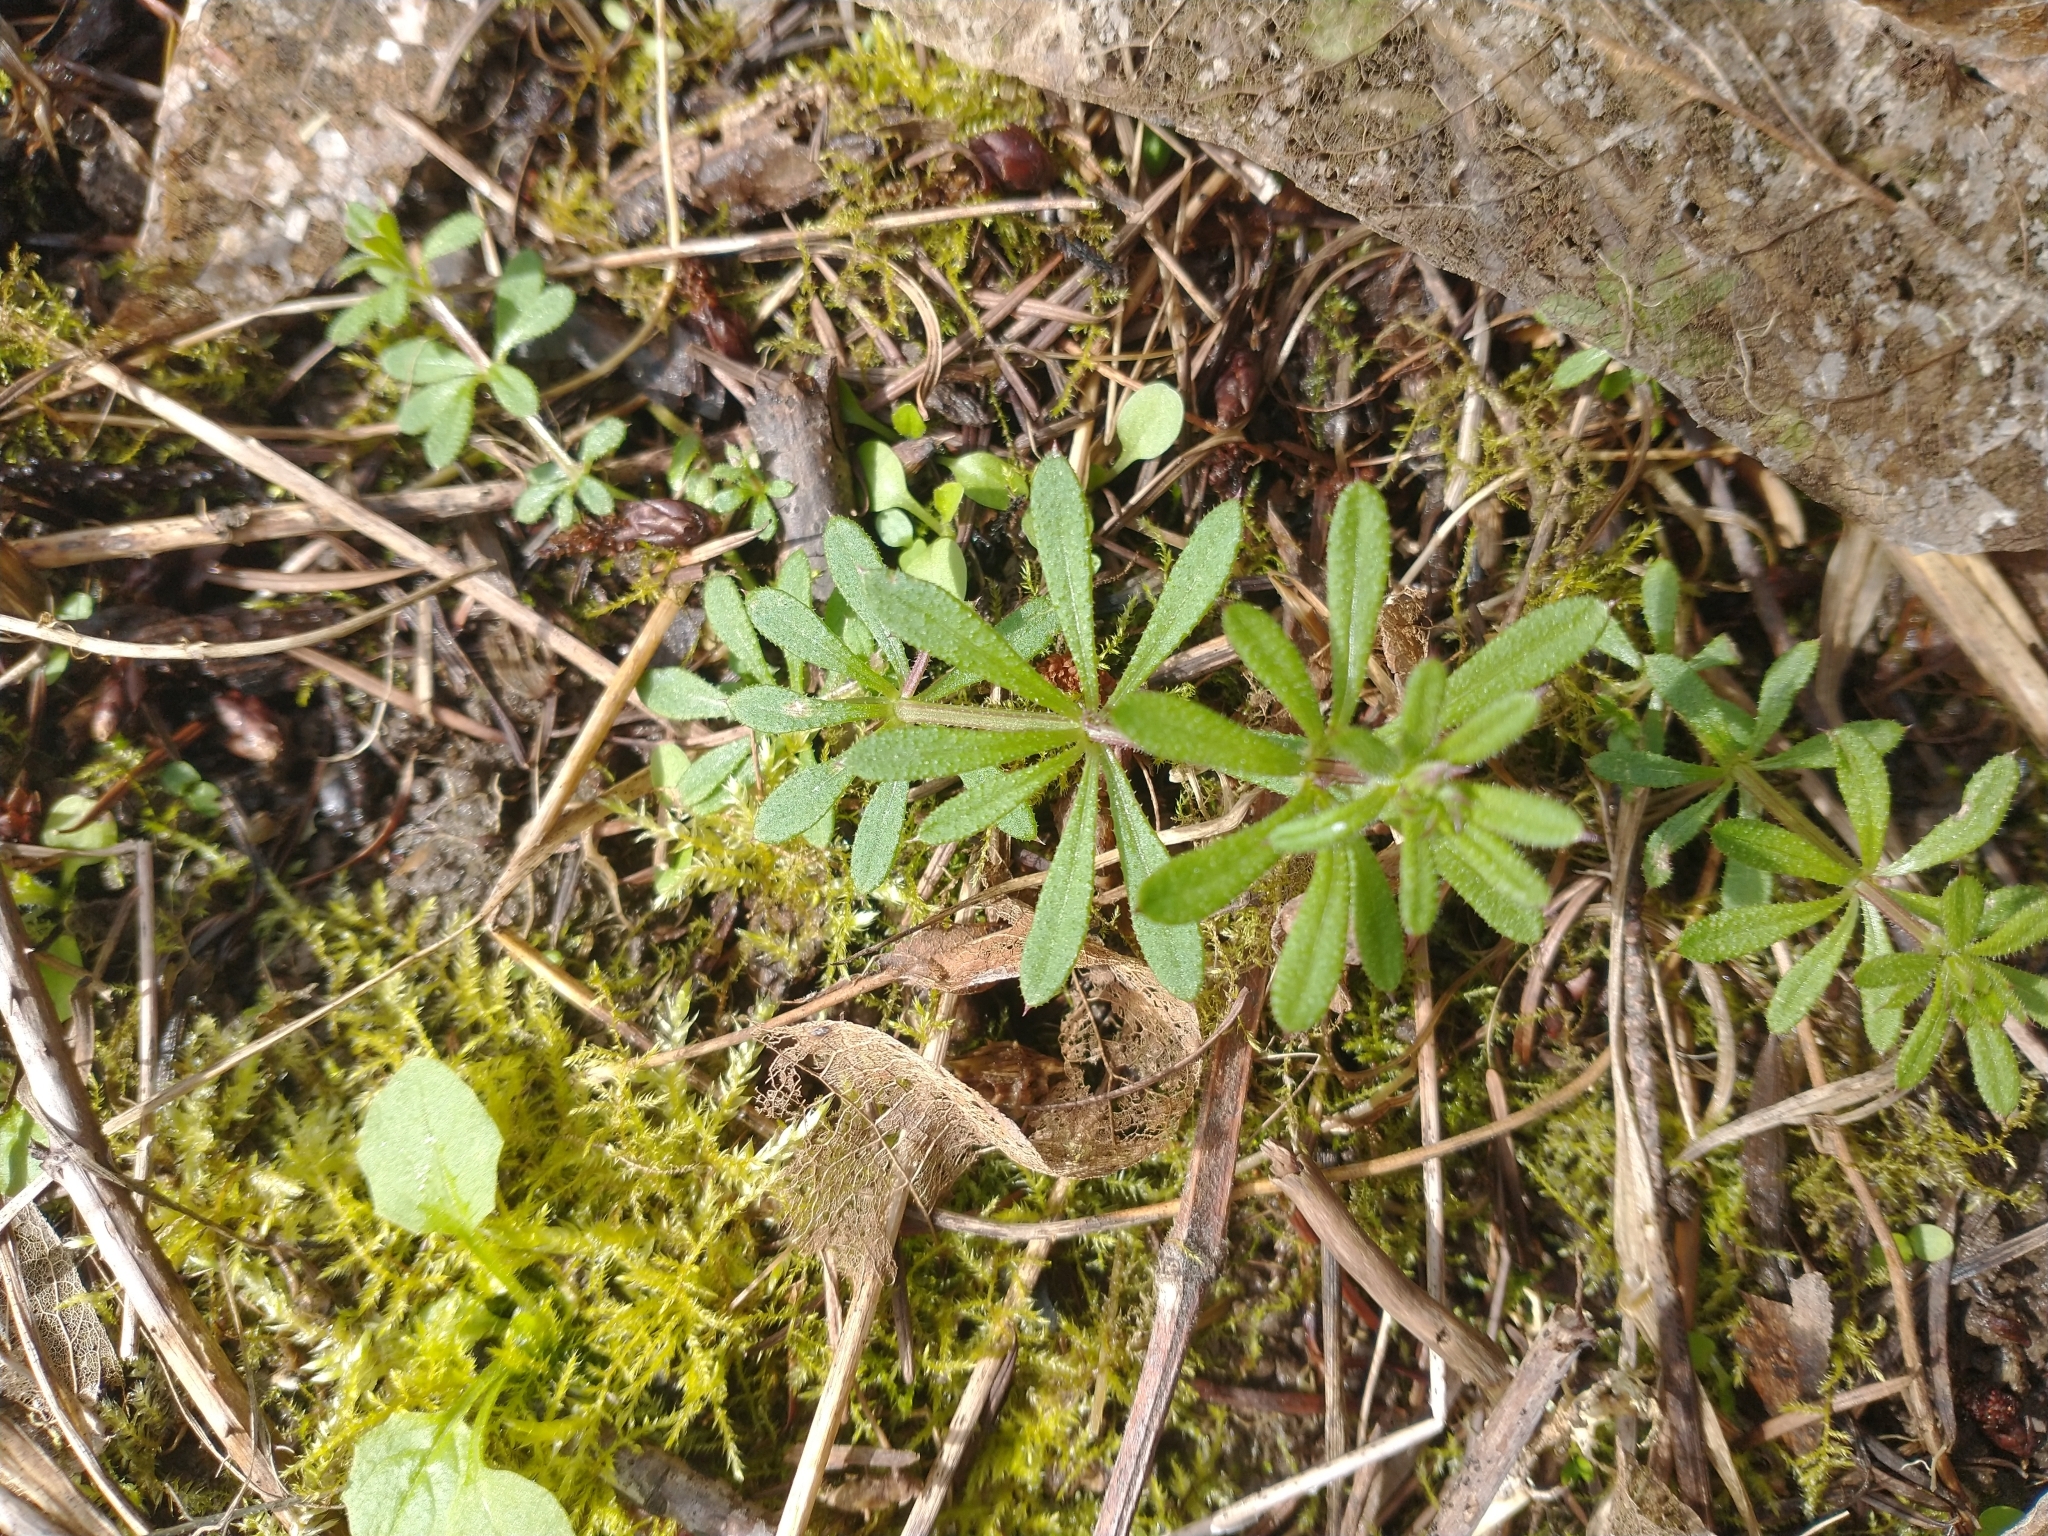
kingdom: Plantae
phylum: Tracheophyta
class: Magnoliopsida
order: Gentianales
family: Rubiaceae
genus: Galium
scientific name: Galium aparine
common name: Cleavers
